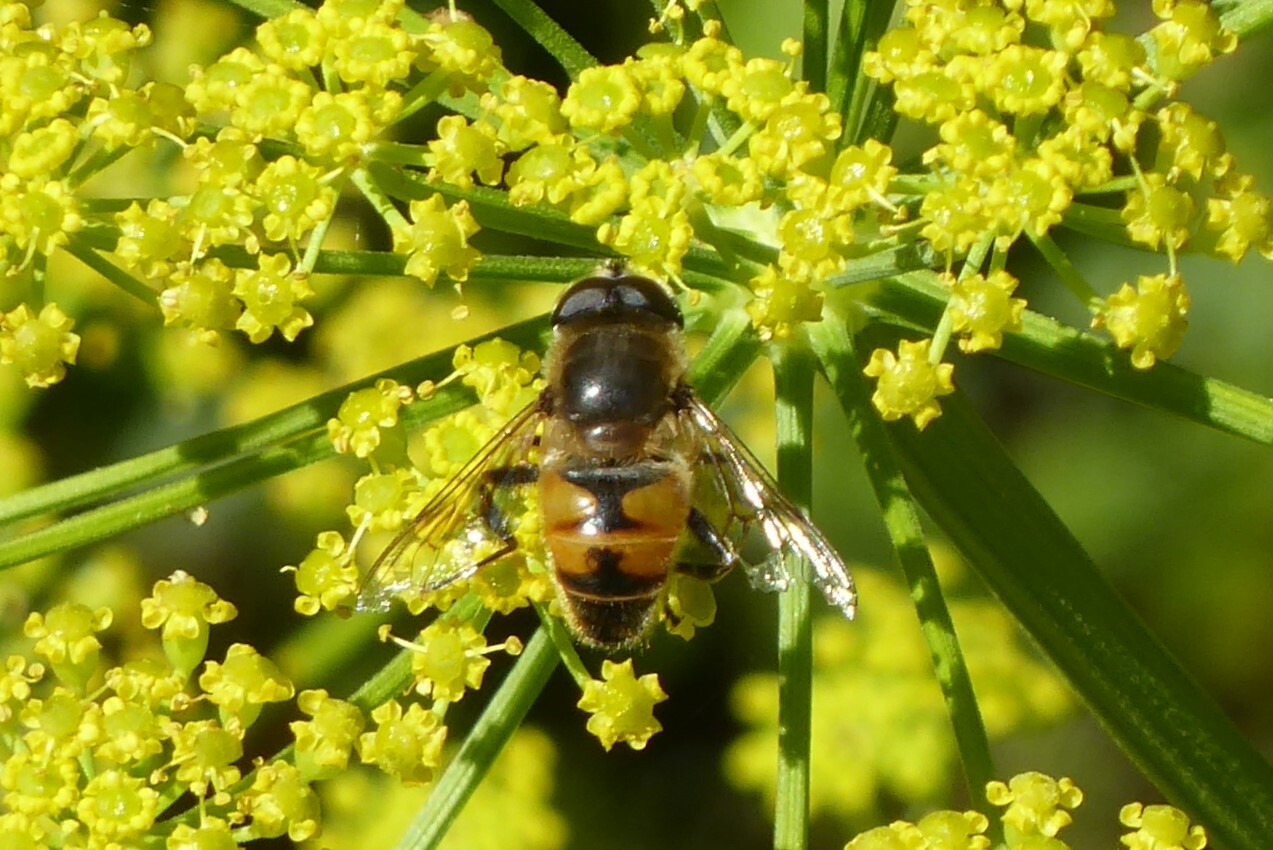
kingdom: Animalia
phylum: Arthropoda
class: Insecta
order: Diptera
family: Syrphidae
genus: Eristalis
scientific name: Eristalis tenax
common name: Drone fly
